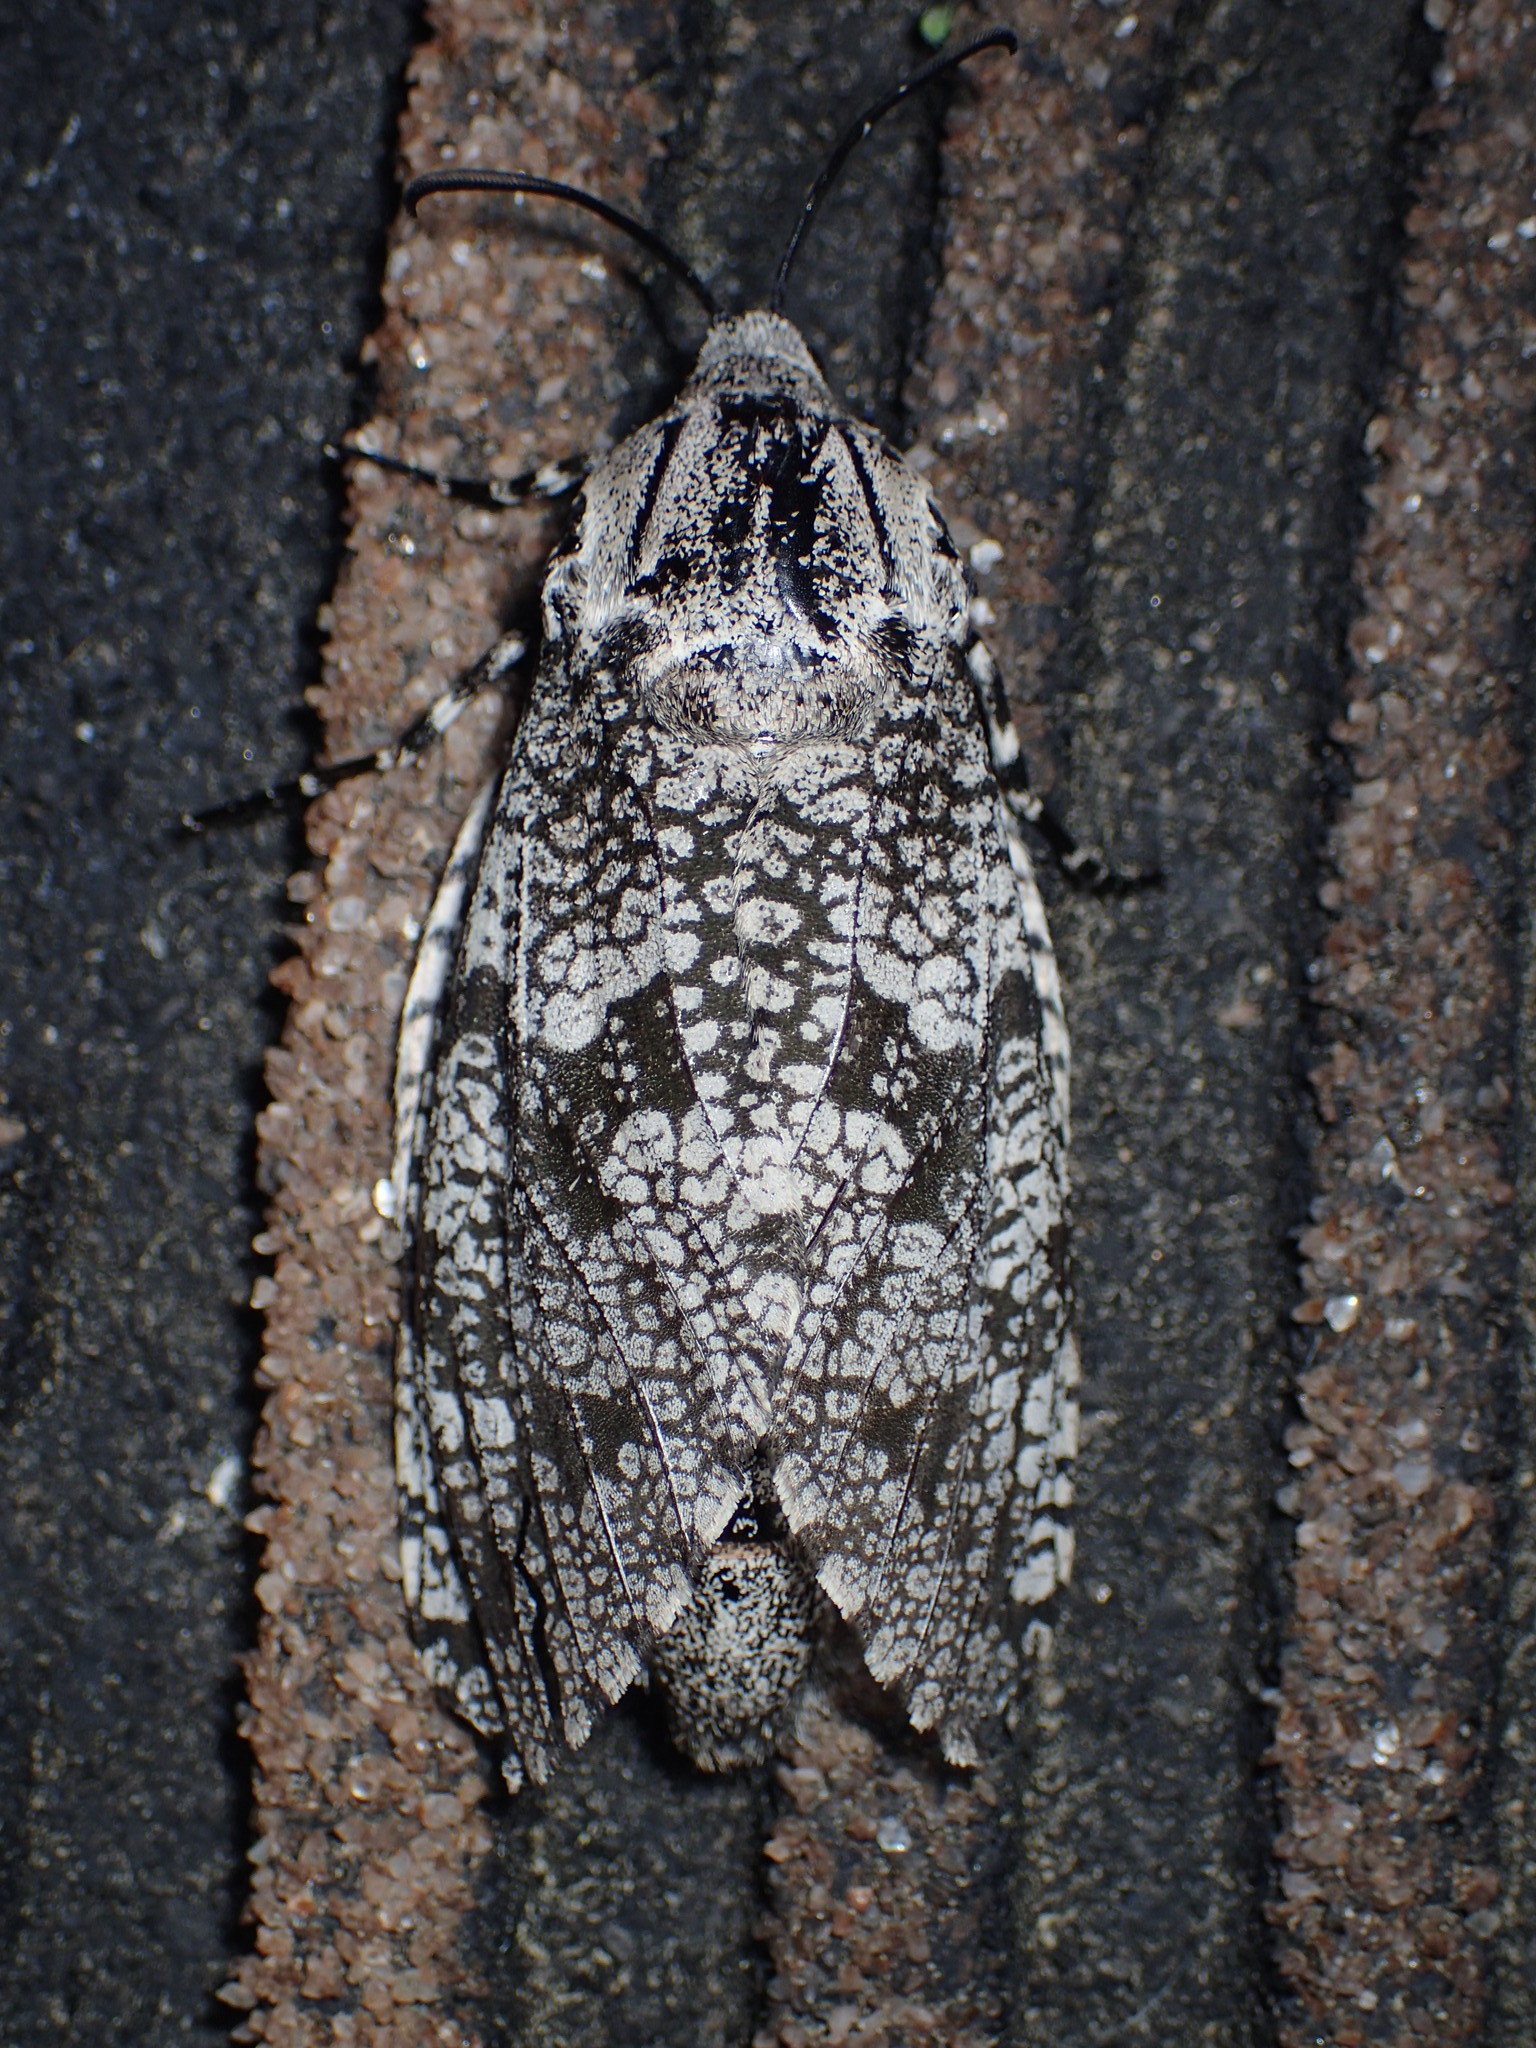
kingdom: Animalia
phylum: Arthropoda
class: Insecta
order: Lepidoptera
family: Cossidae
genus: Prionoxystus
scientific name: Prionoxystus robiniae
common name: Carpenterworm
